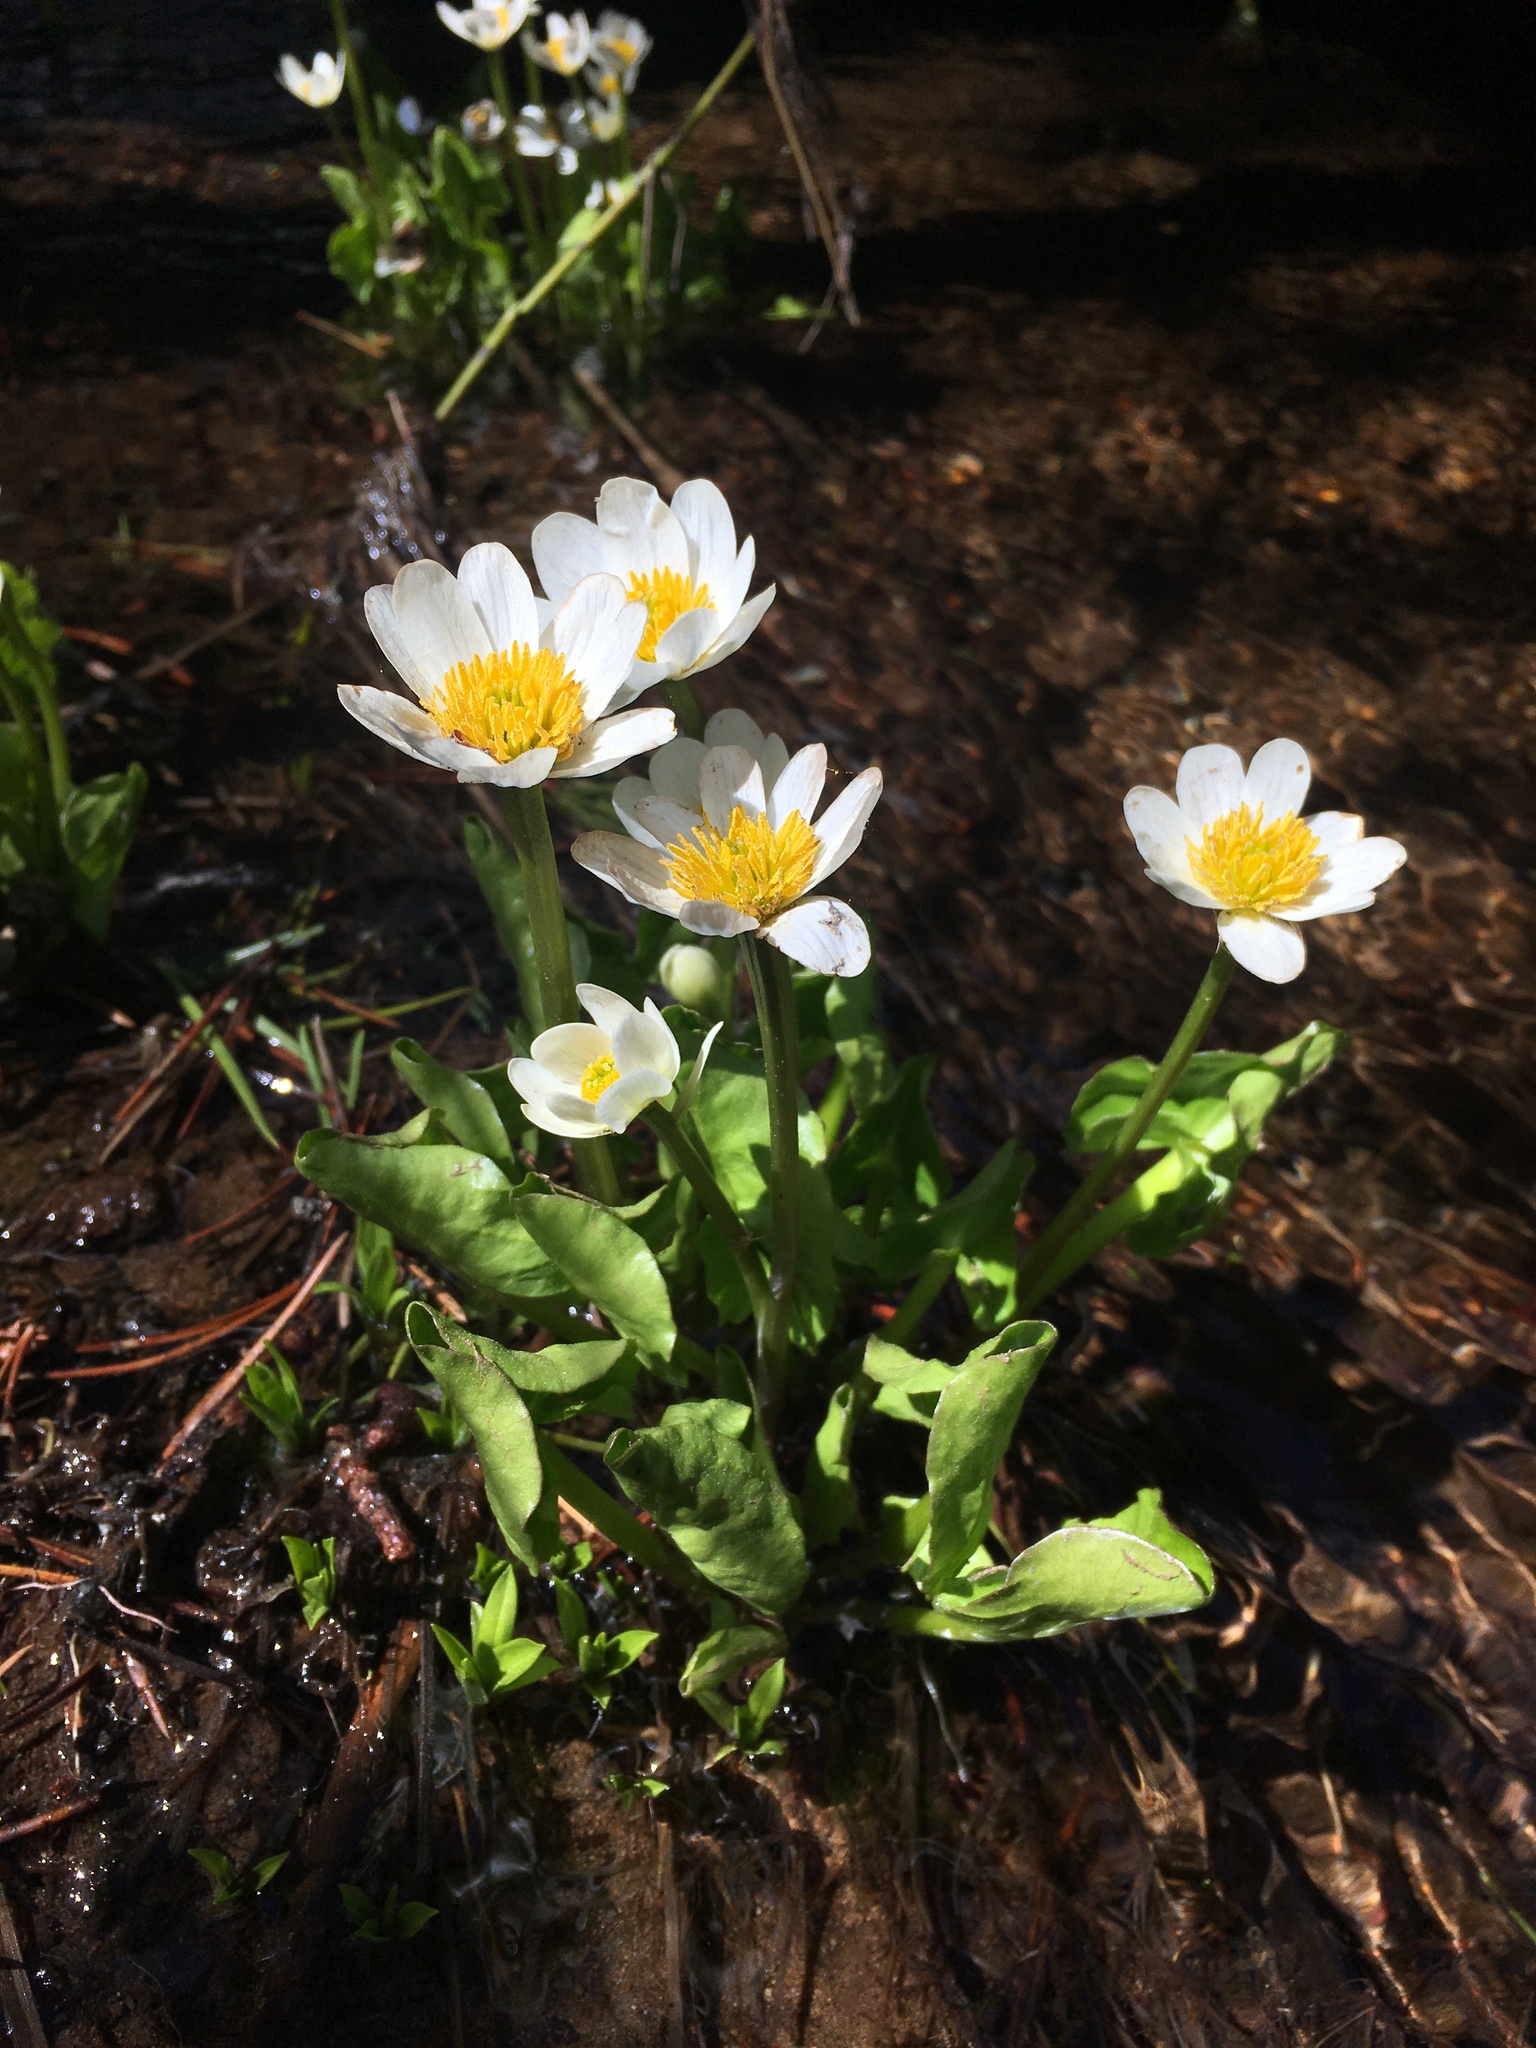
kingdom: Plantae
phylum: Tracheophyta
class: Magnoliopsida
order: Ranunculales
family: Ranunculaceae
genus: Caltha
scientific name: Caltha leptosepala
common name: Elkslip
